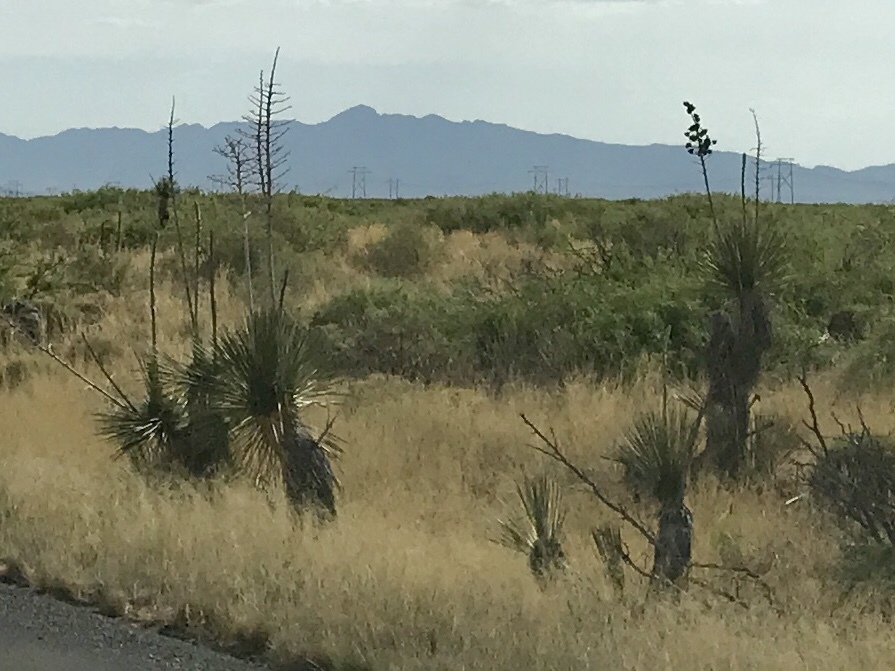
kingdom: Plantae
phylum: Tracheophyta
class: Liliopsida
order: Asparagales
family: Asparagaceae
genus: Yucca
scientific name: Yucca elata
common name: Palmella
